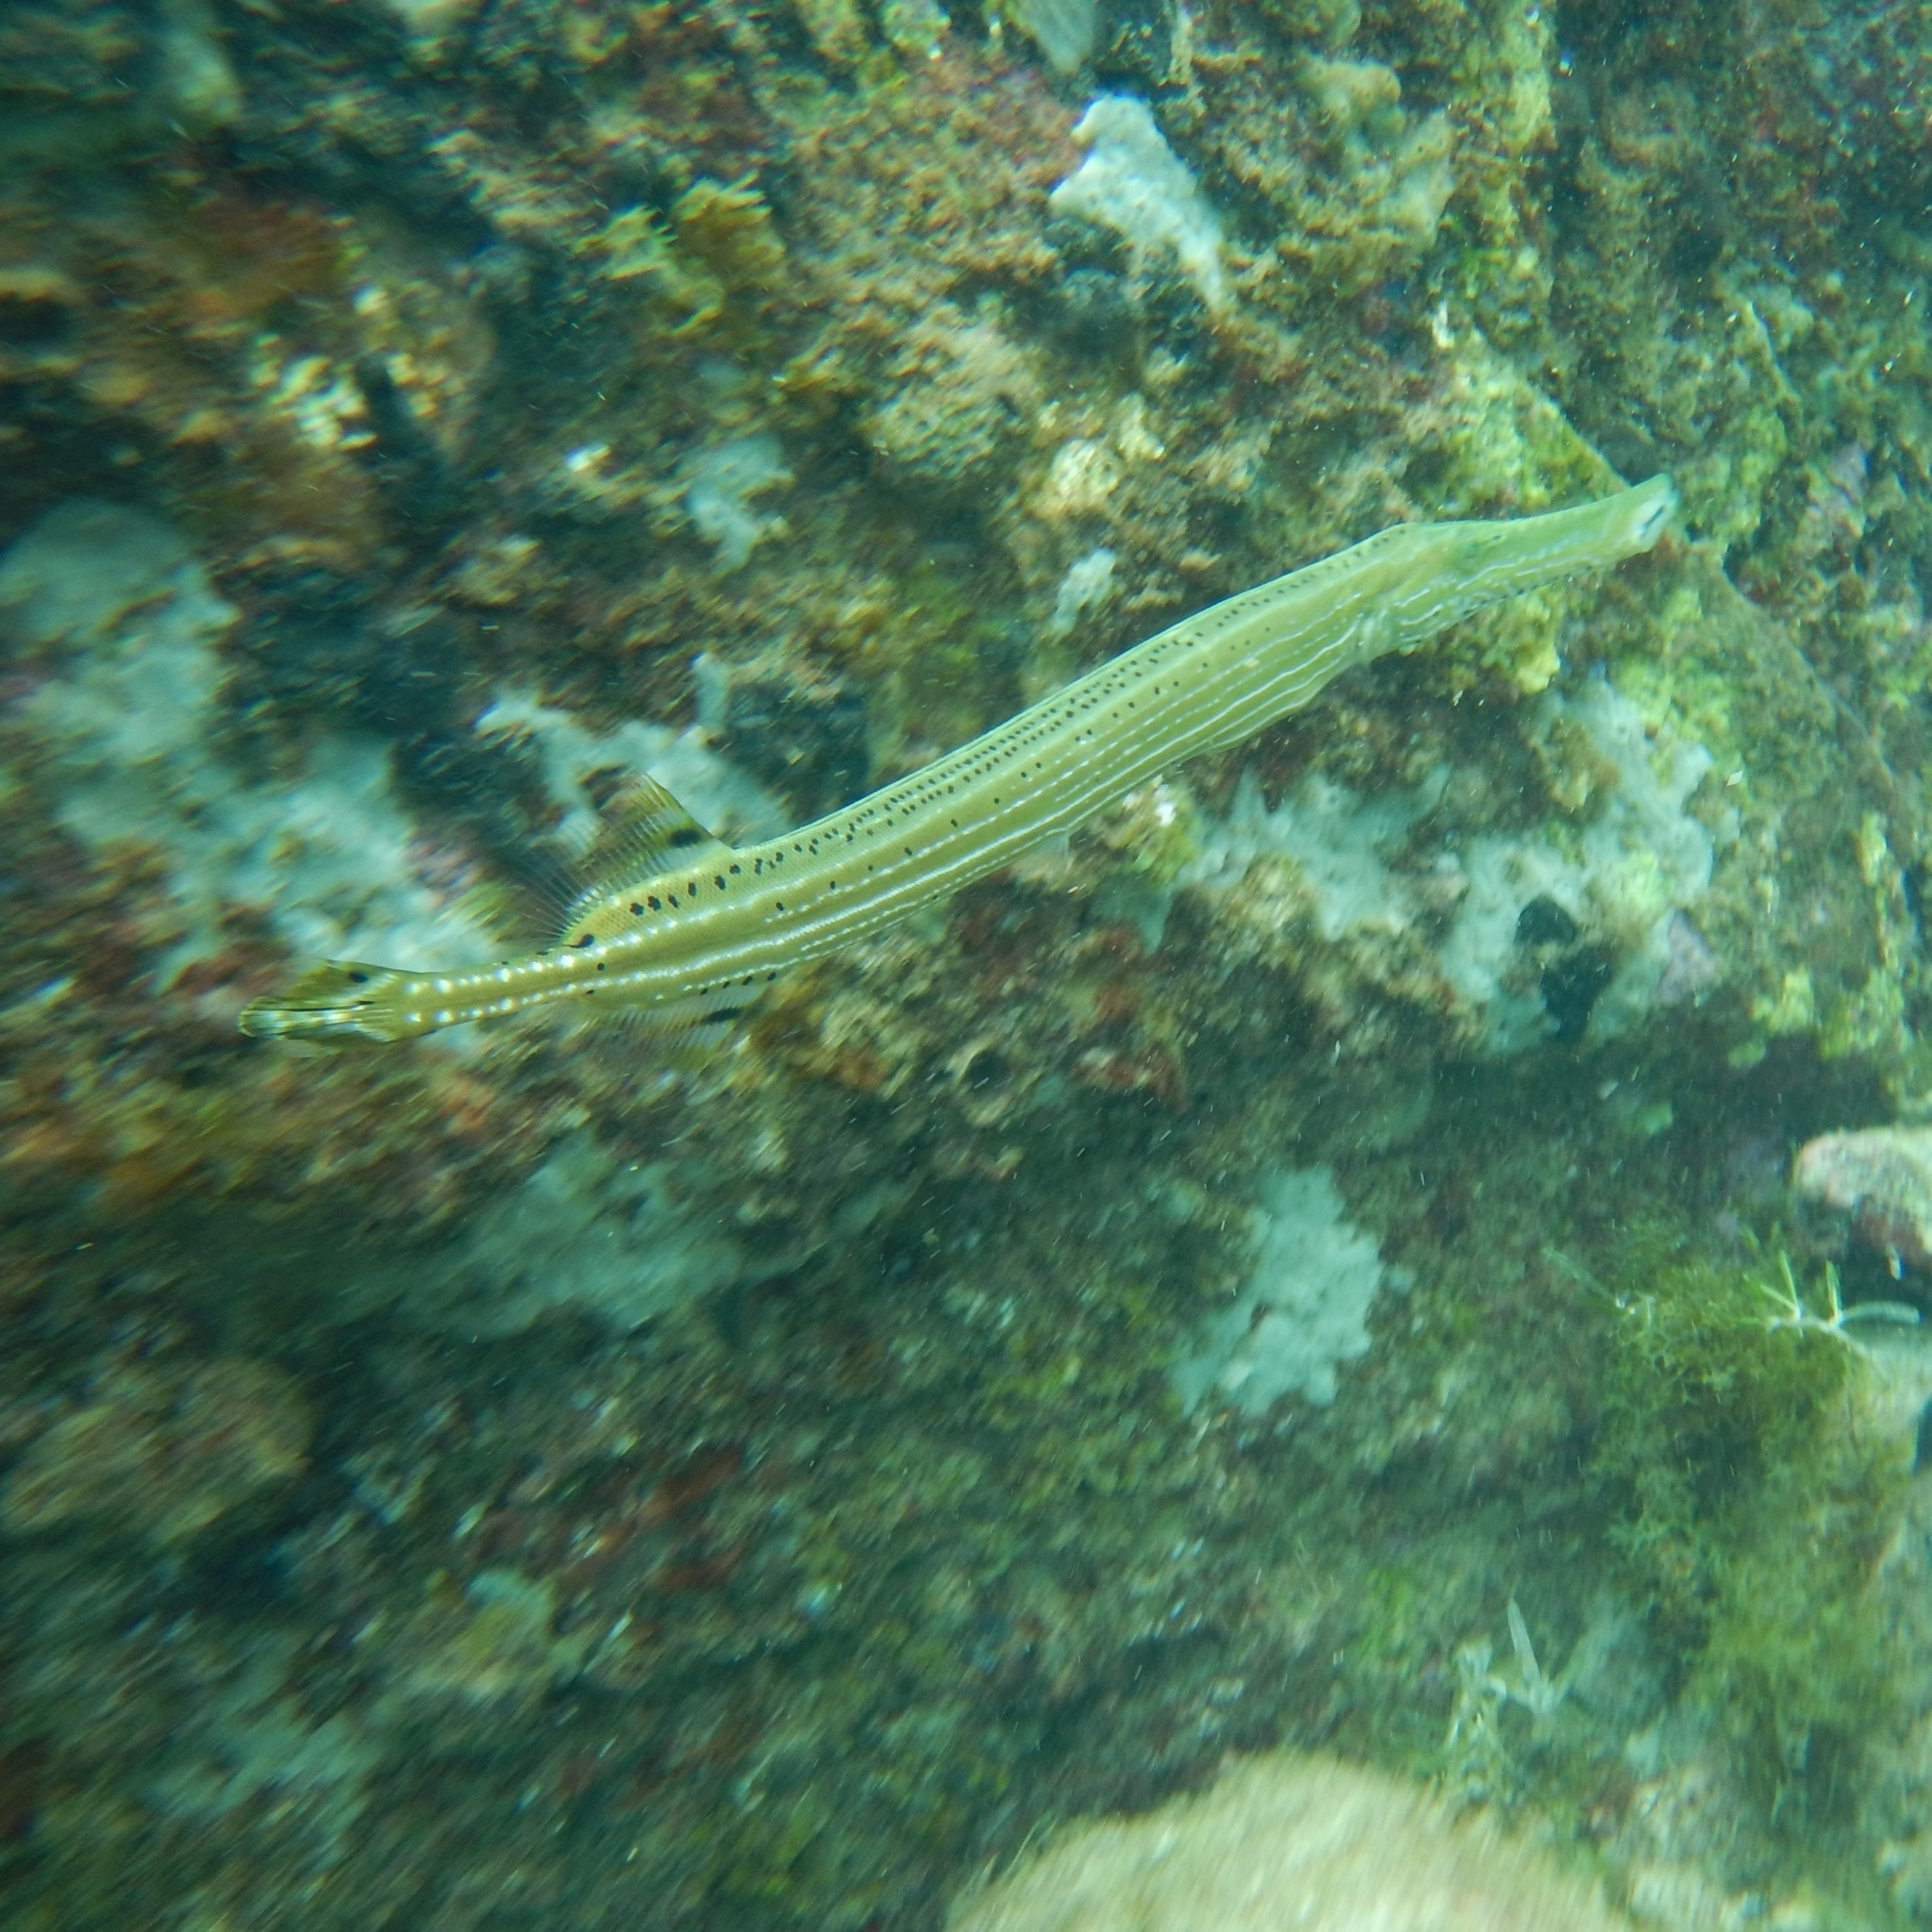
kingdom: Animalia
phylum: Chordata
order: Syngnathiformes
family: Aulostomidae
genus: Aulostomus
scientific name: Aulostomus maculatus
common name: West atlantic trumpetfish
